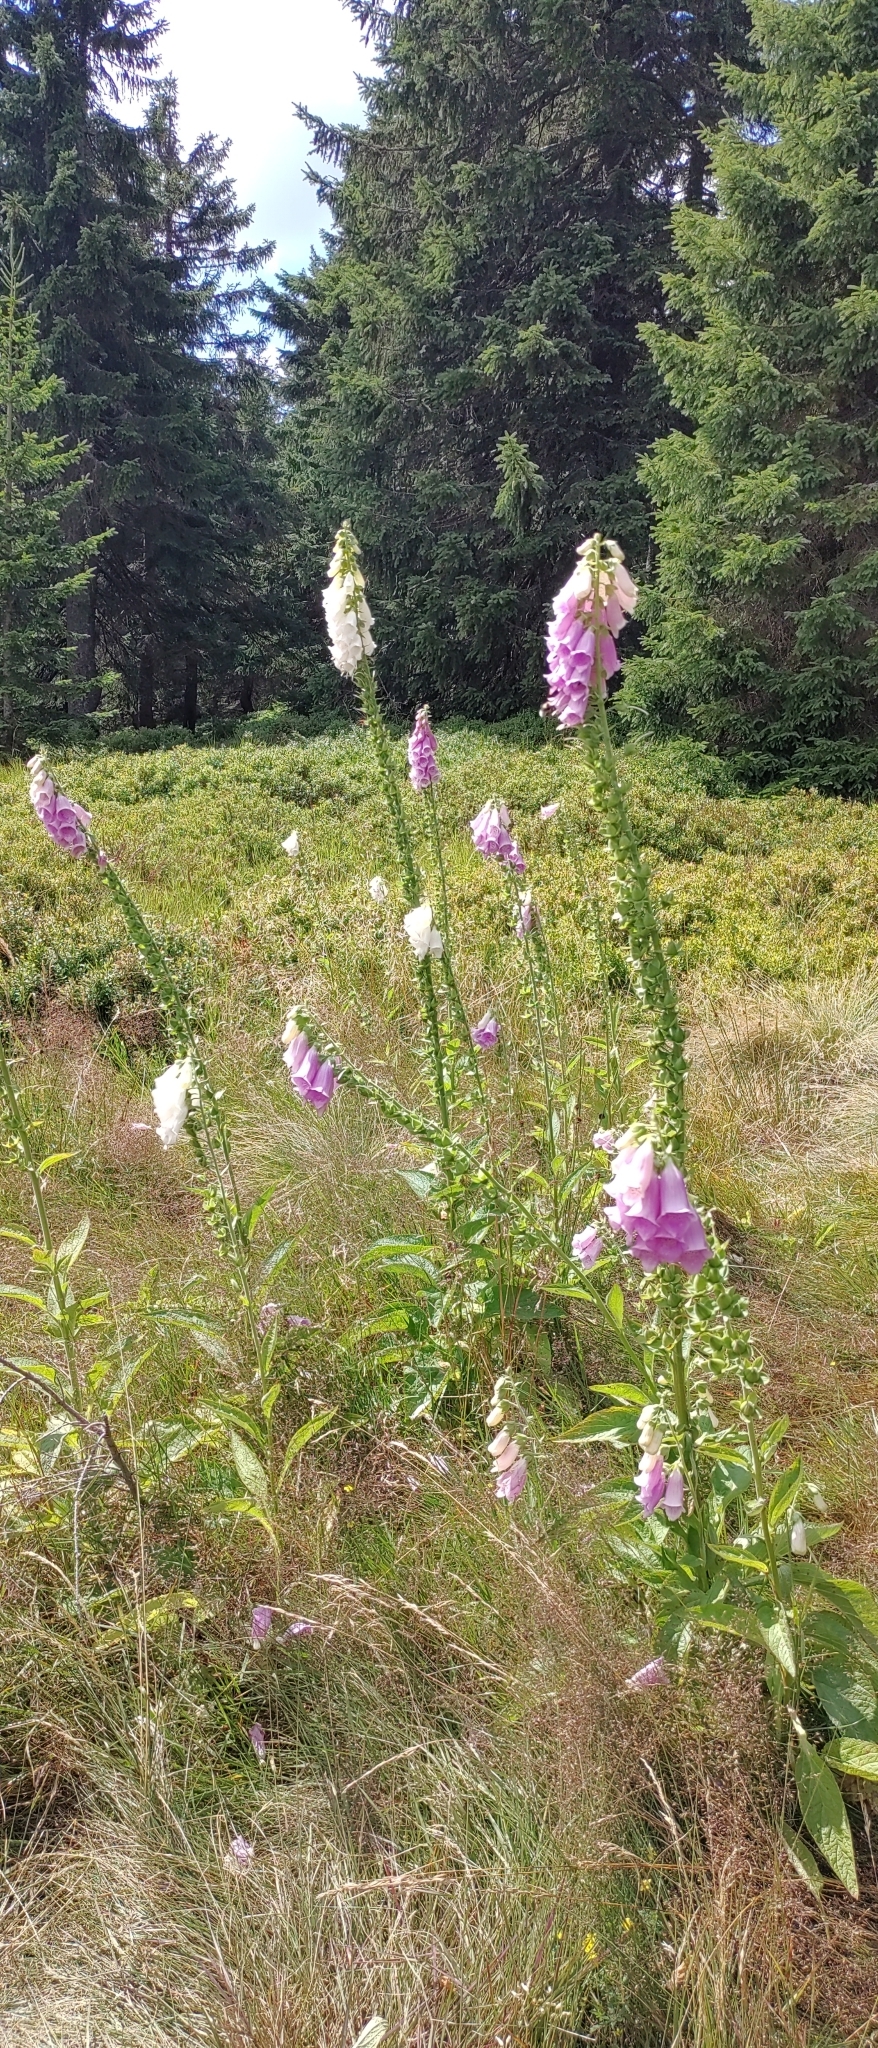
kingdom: Plantae
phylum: Tracheophyta
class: Magnoliopsida
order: Lamiales
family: Plantaginaceae
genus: Digitalis
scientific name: Digitalis purpurea
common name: Foxglove
